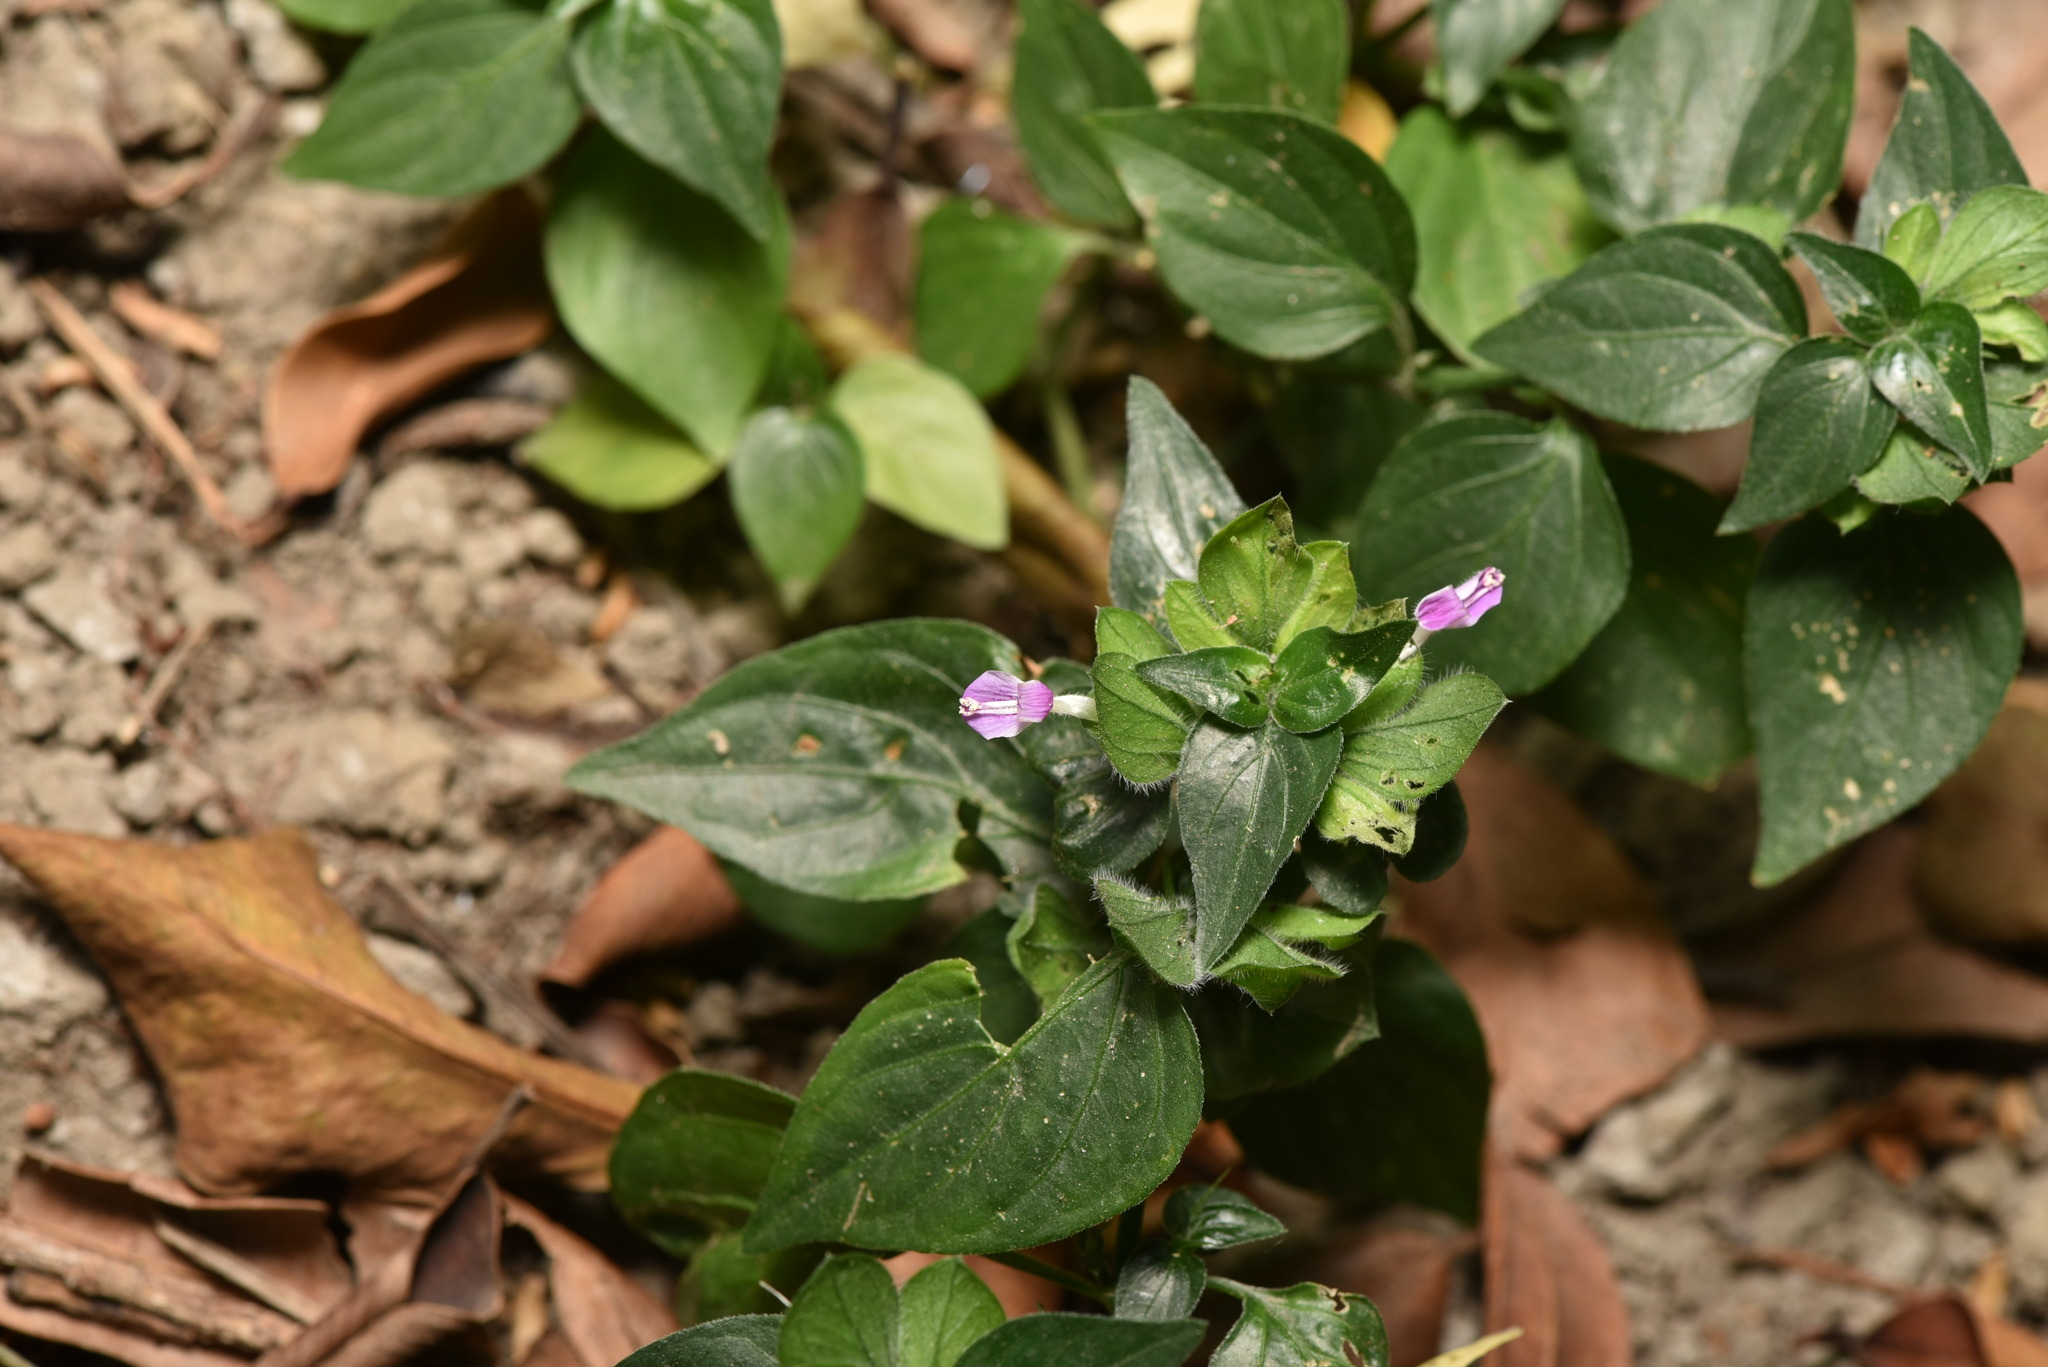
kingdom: Plantae
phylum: Tracheophyta
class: Magnoliopsida
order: Lamiales
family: Acanthaceae
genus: Dicliptera
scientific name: Dicliptera chinensis
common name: Chinese foldwing
